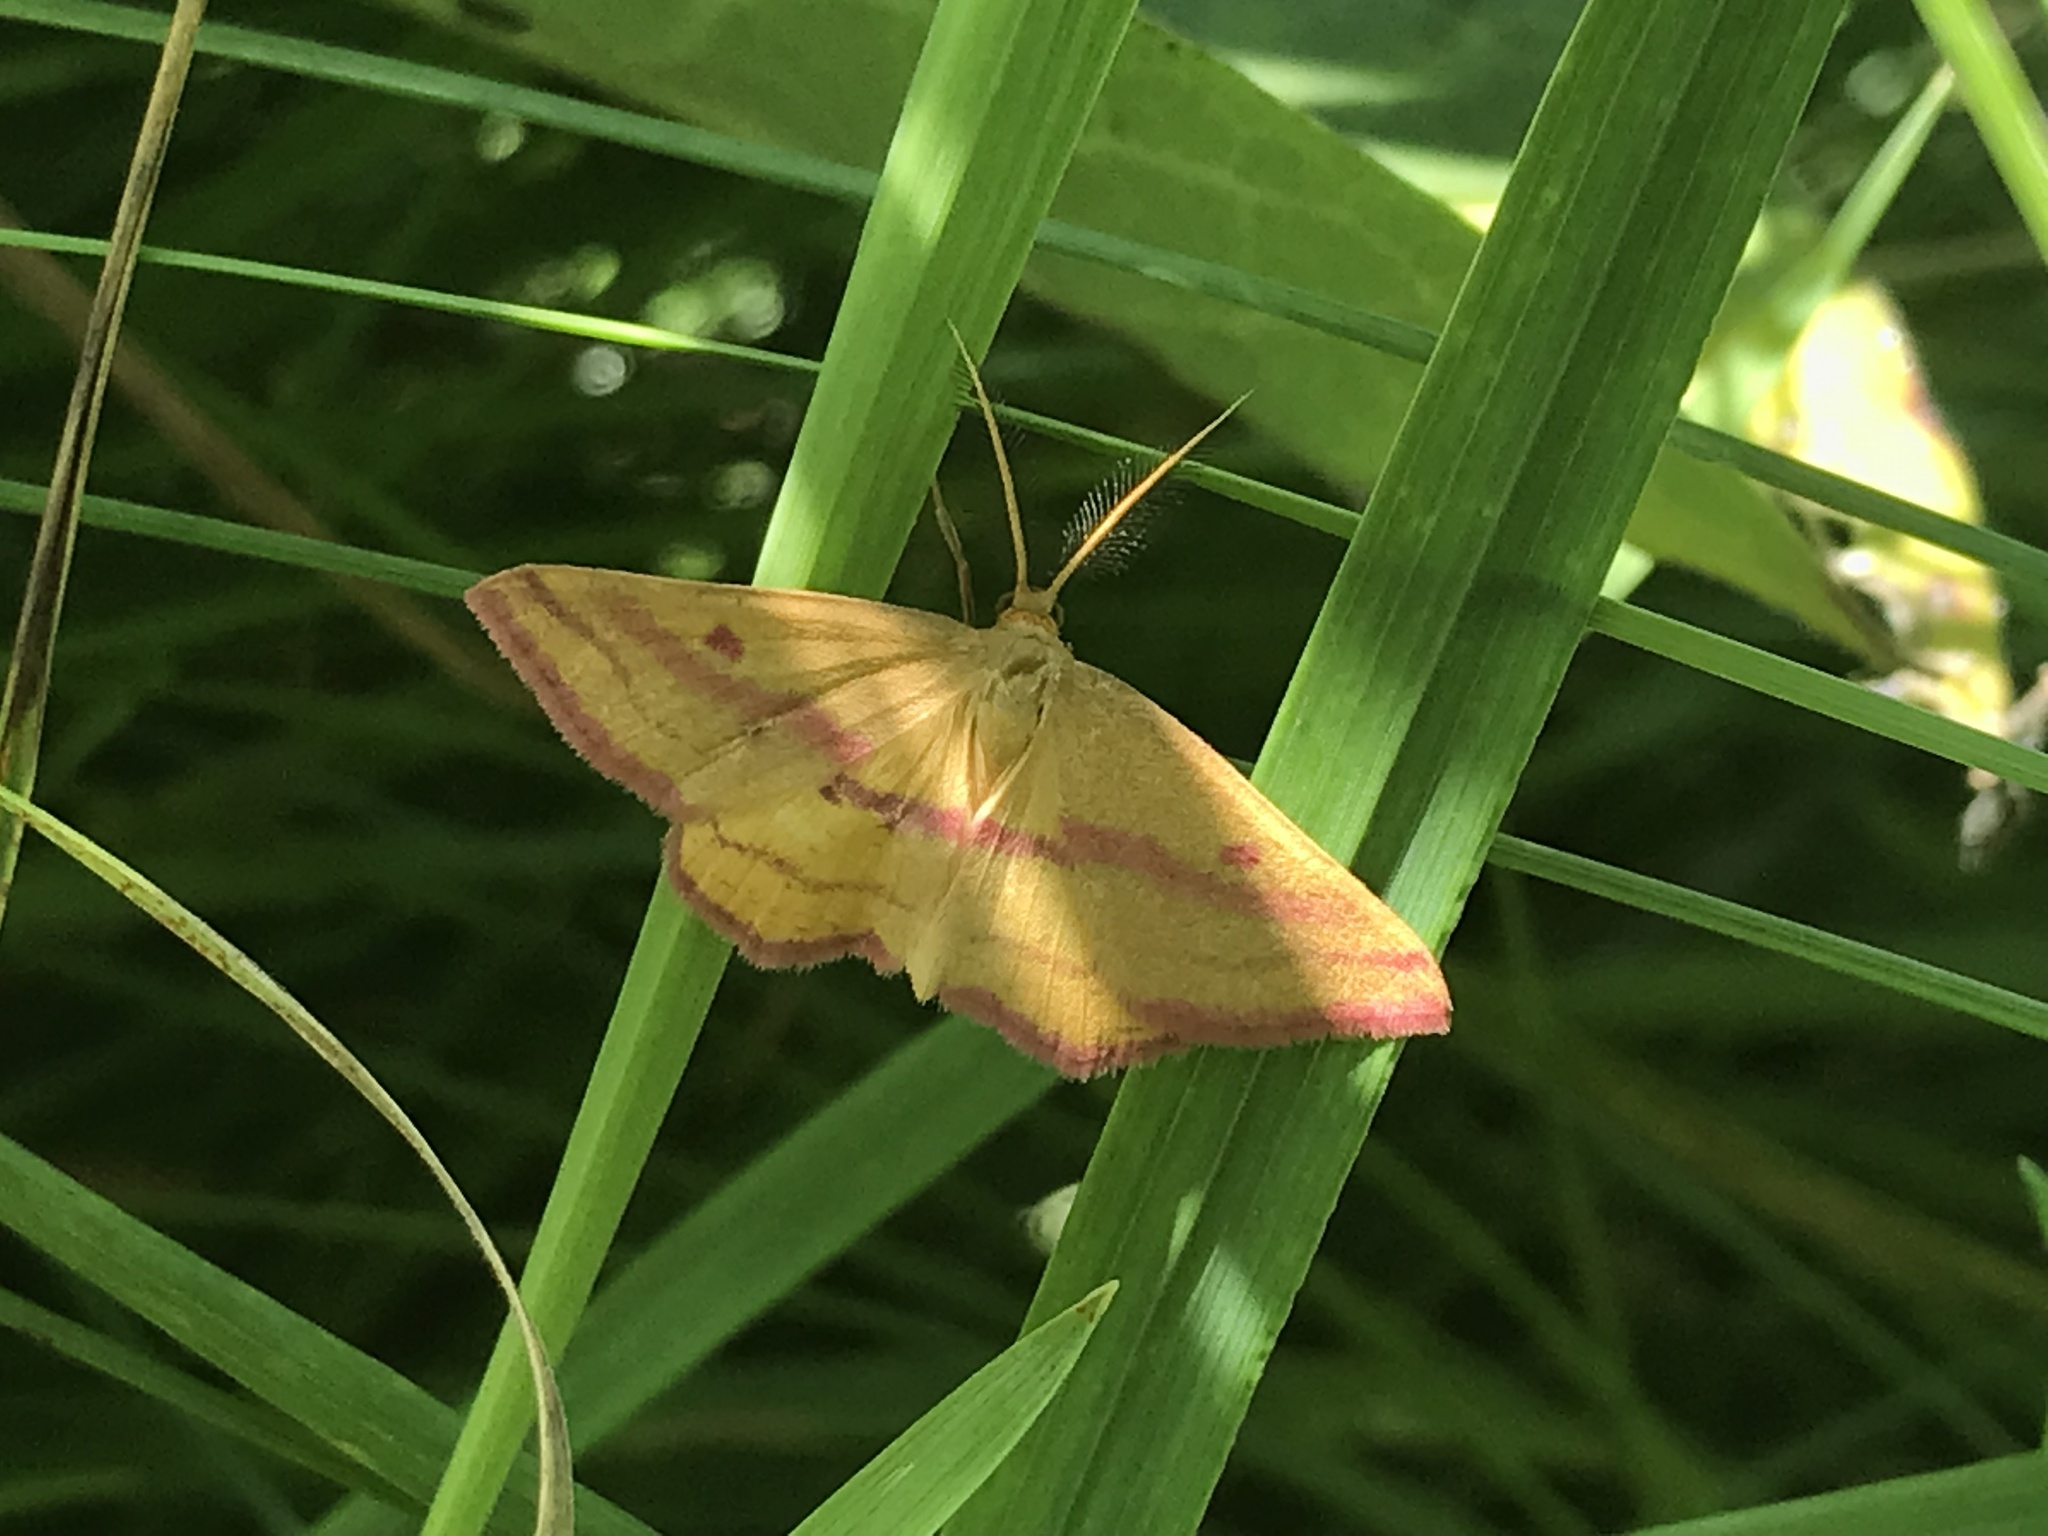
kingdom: Animalia
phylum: Arthropoda
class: Insecta
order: Lepidoptera
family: Geometridae
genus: Haematopis
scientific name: Haematopis grataria
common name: Chickweed geometer
